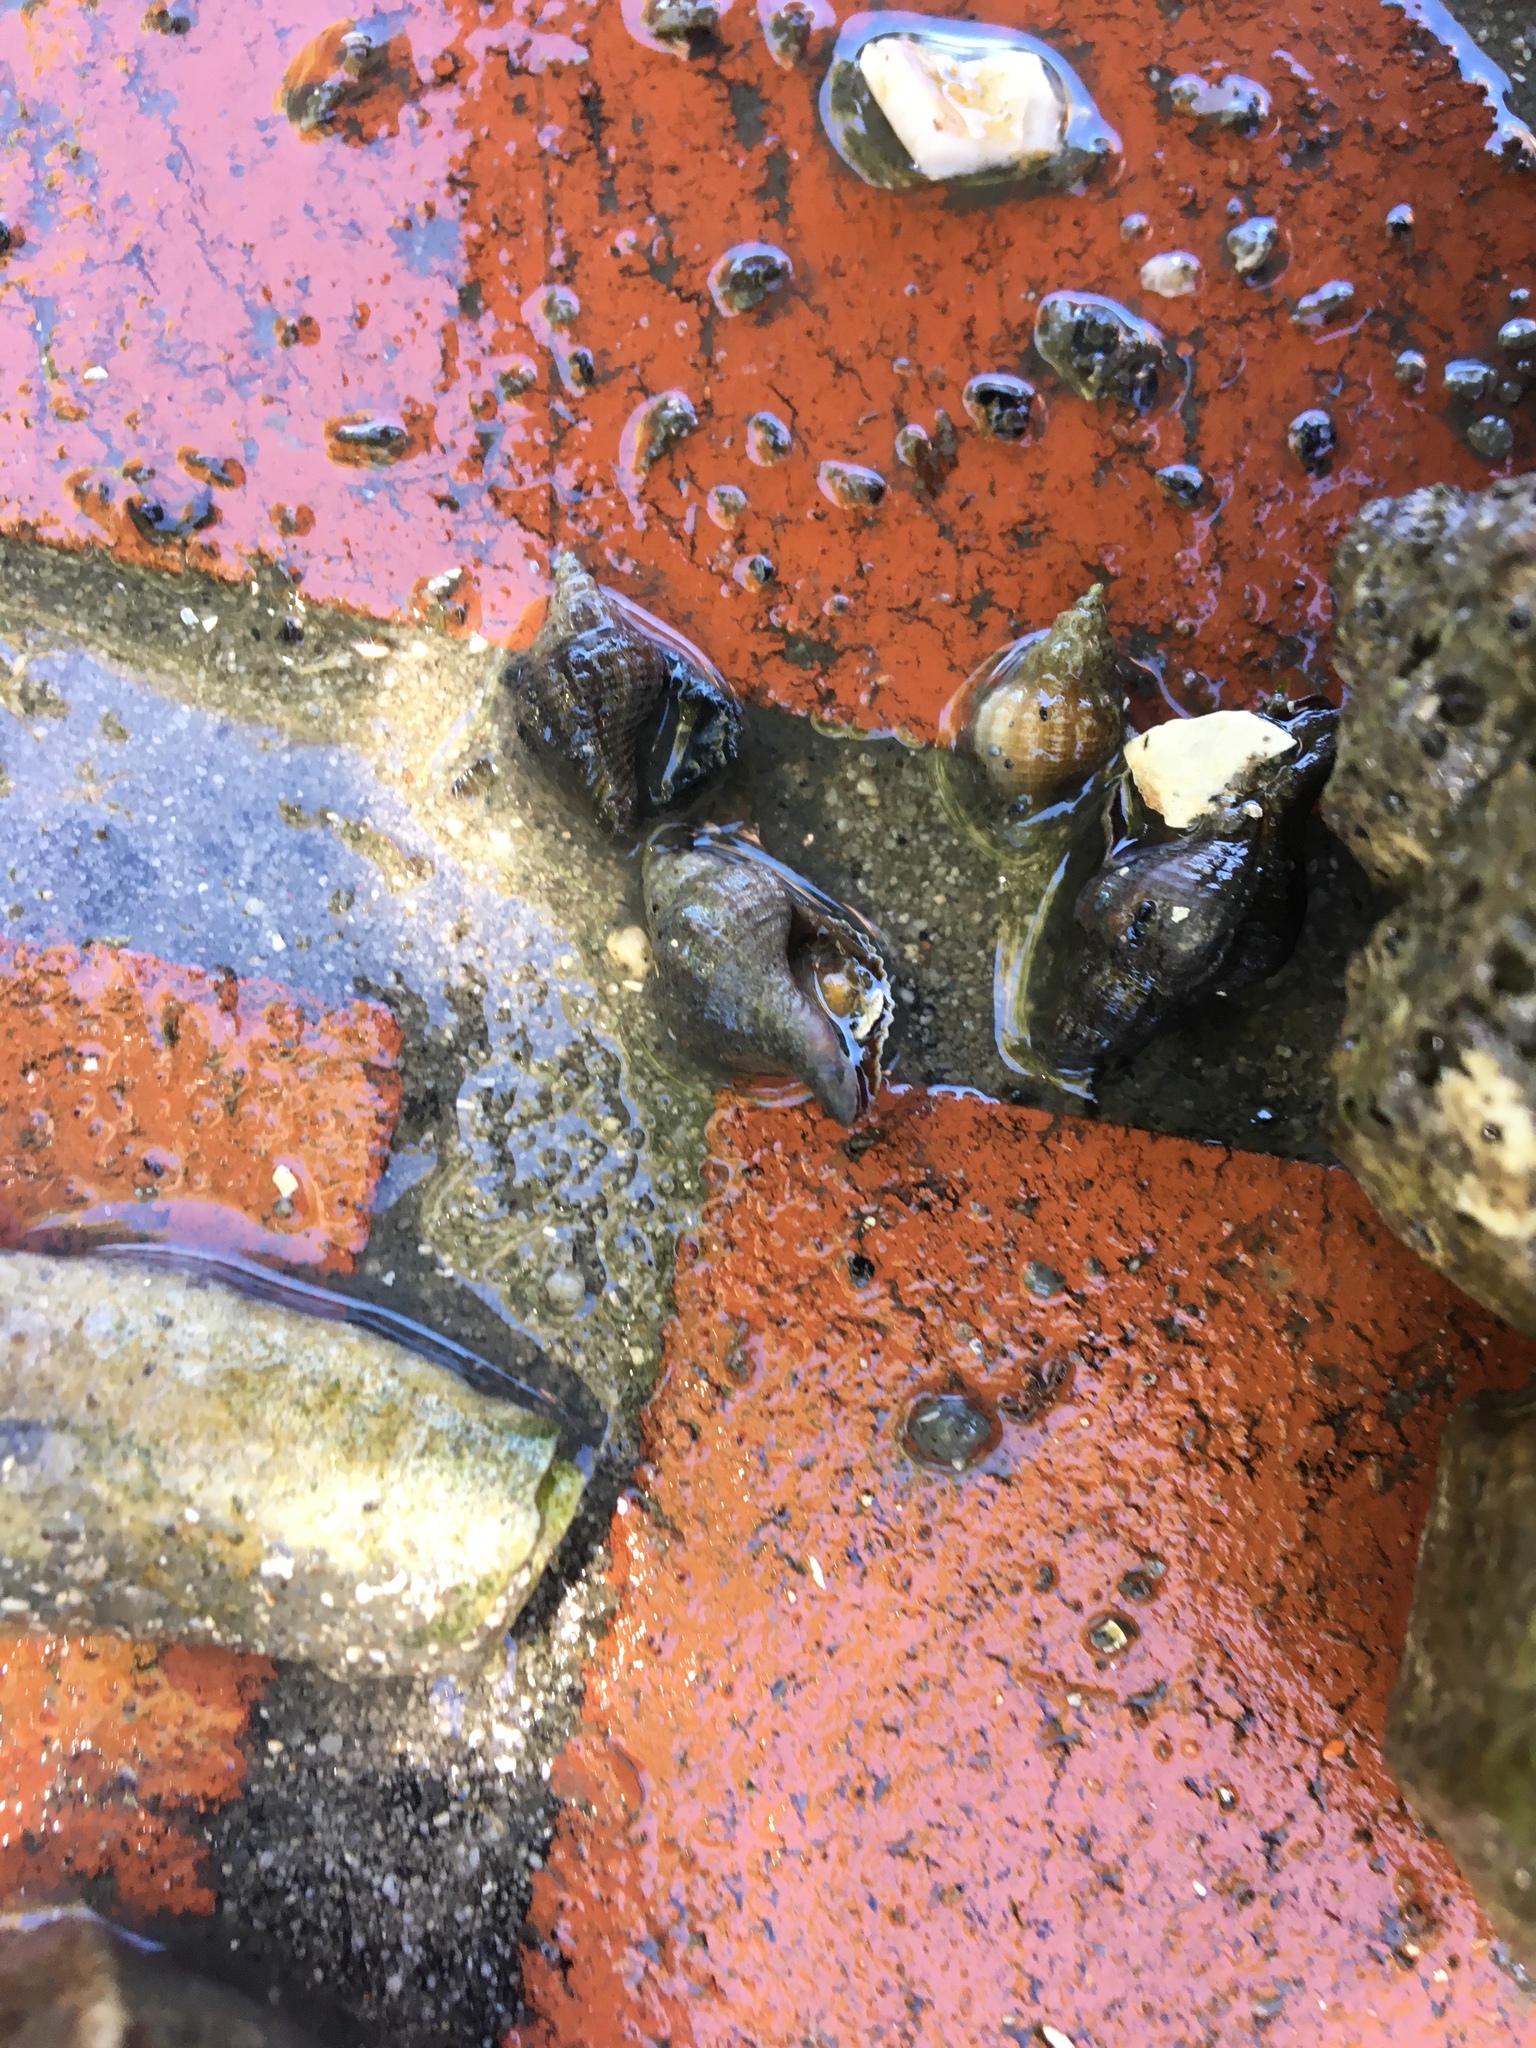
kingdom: Animalia
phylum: Mollusca
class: Gastropoda
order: Neogastropoda
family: Muricidae
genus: Urosalpinx
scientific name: Urosalpinx cinerea
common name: American sting winkle
